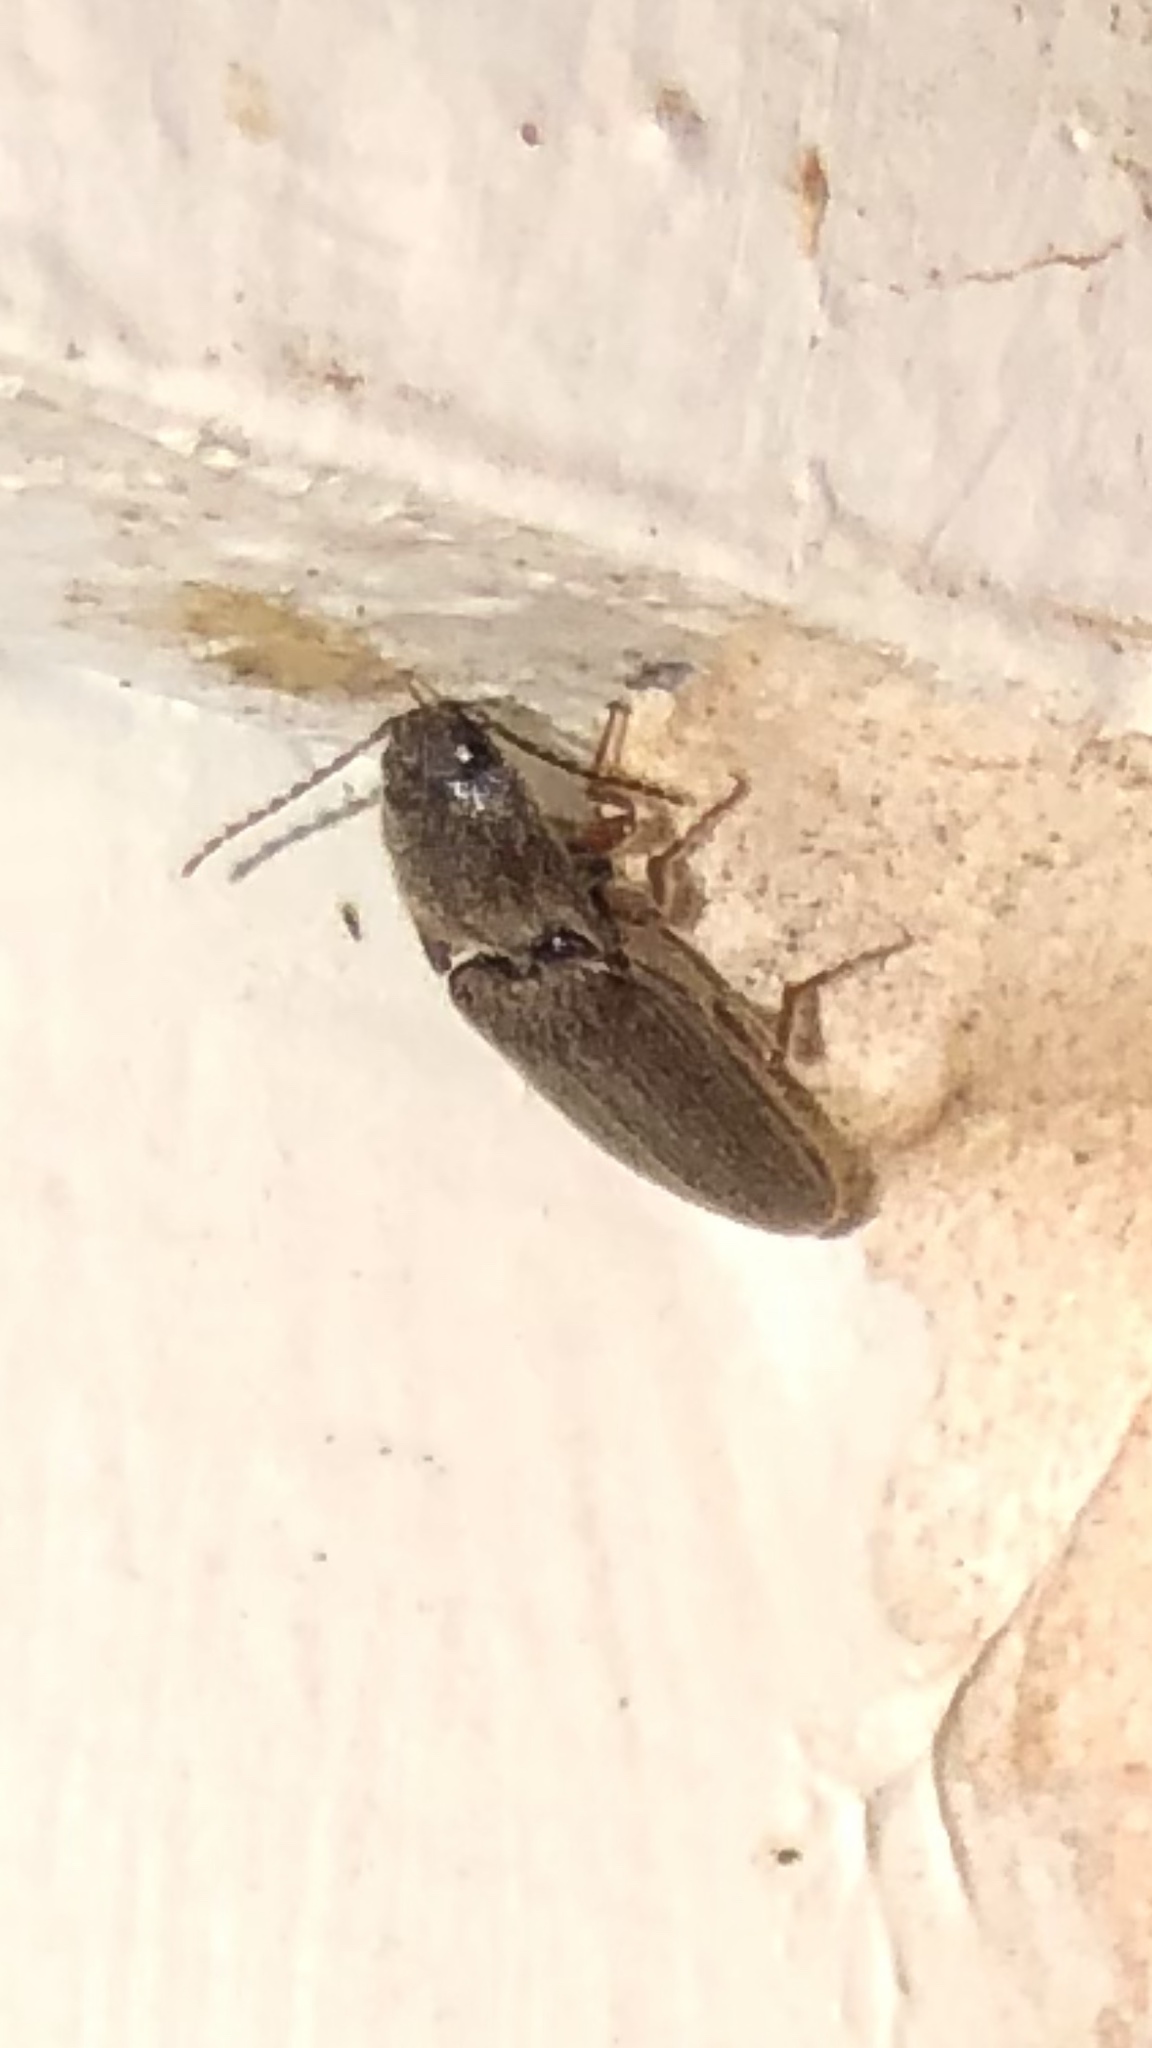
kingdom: Animalia
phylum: Arthropoda
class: Insecta
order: Coleoptera
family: Elateridae
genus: Melanotus
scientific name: Melanotus
